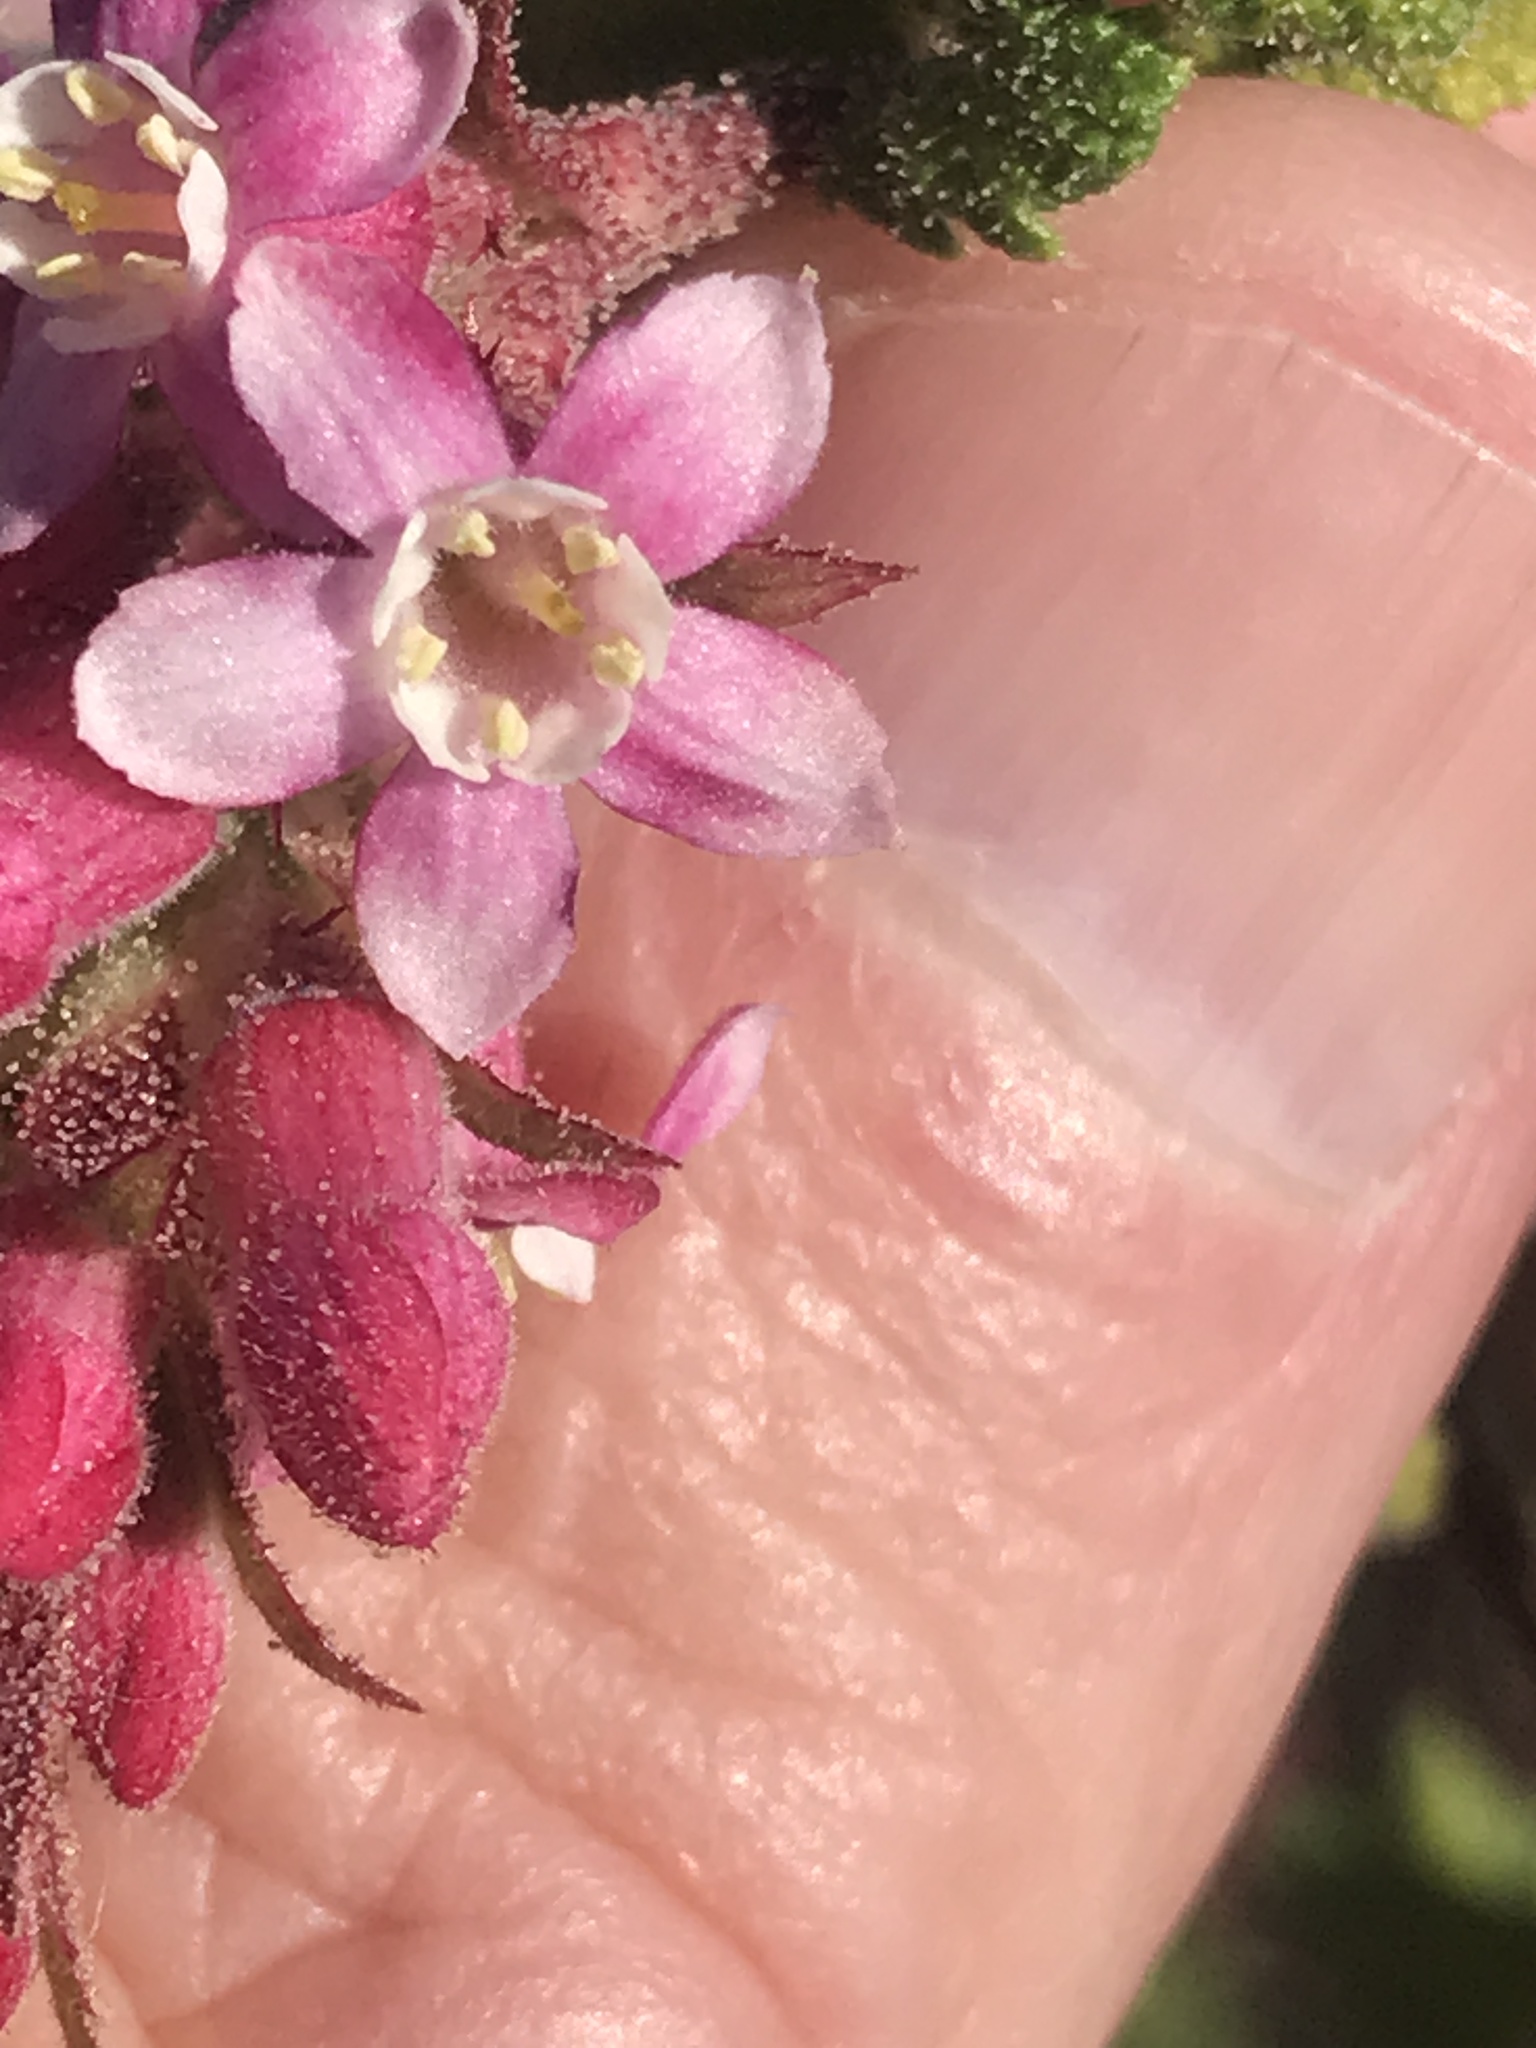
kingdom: Plantae
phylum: Tracheophyta
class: Magnoliopsida
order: Saxifragales
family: Grossulariaceae
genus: Ribes
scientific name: Ribes malvaceum
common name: Chaparral currant
